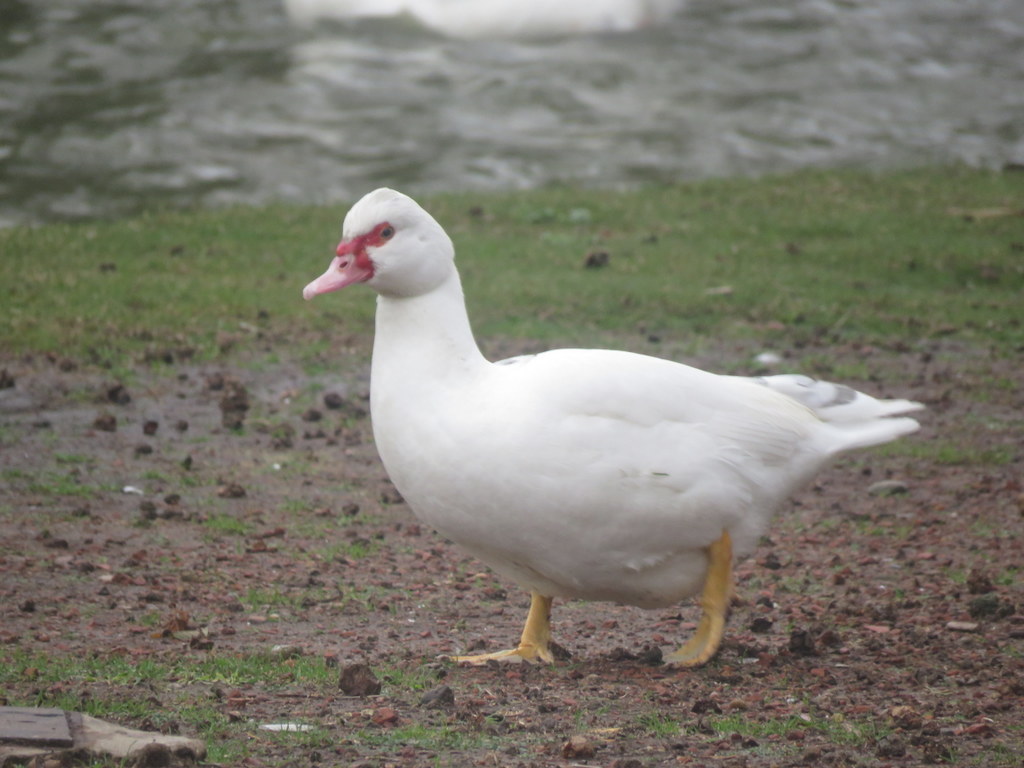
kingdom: Animalia
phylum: Chordata
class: Aves
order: Anseriformes
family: Anatidae
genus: Cairina
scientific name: Cairina moschata
